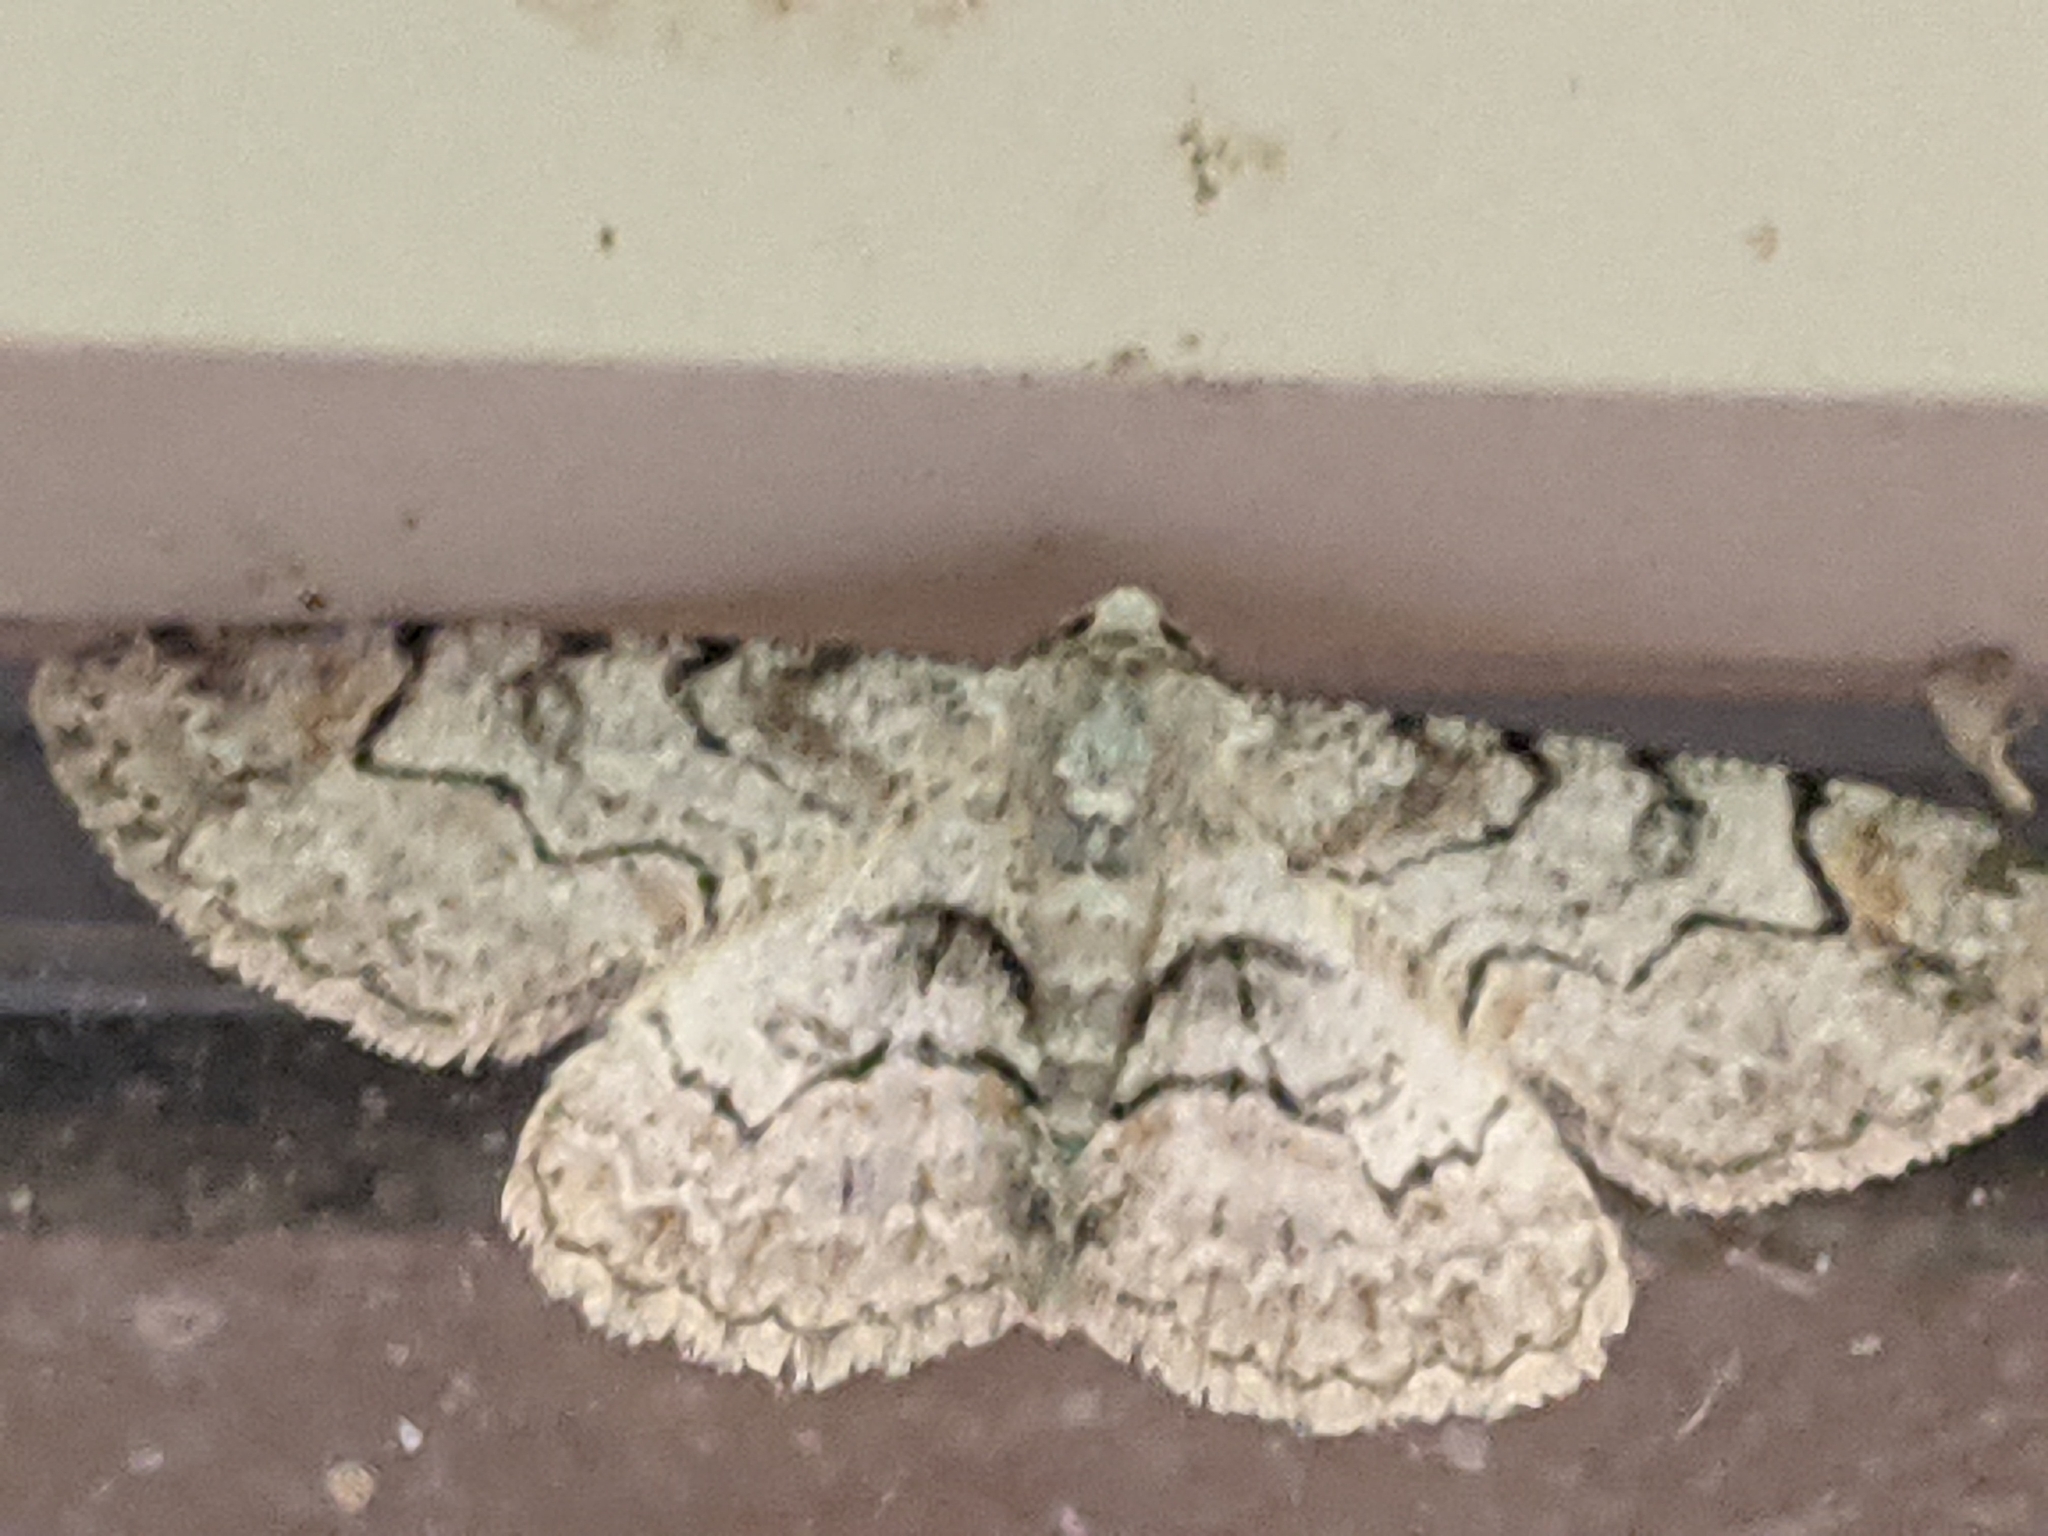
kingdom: Animalia
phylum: Arthropoda
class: Insecta
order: Lepidoptera
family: Geometridae
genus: Iridopsis
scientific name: Iridopsis larvaria
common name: Bent-line gray
